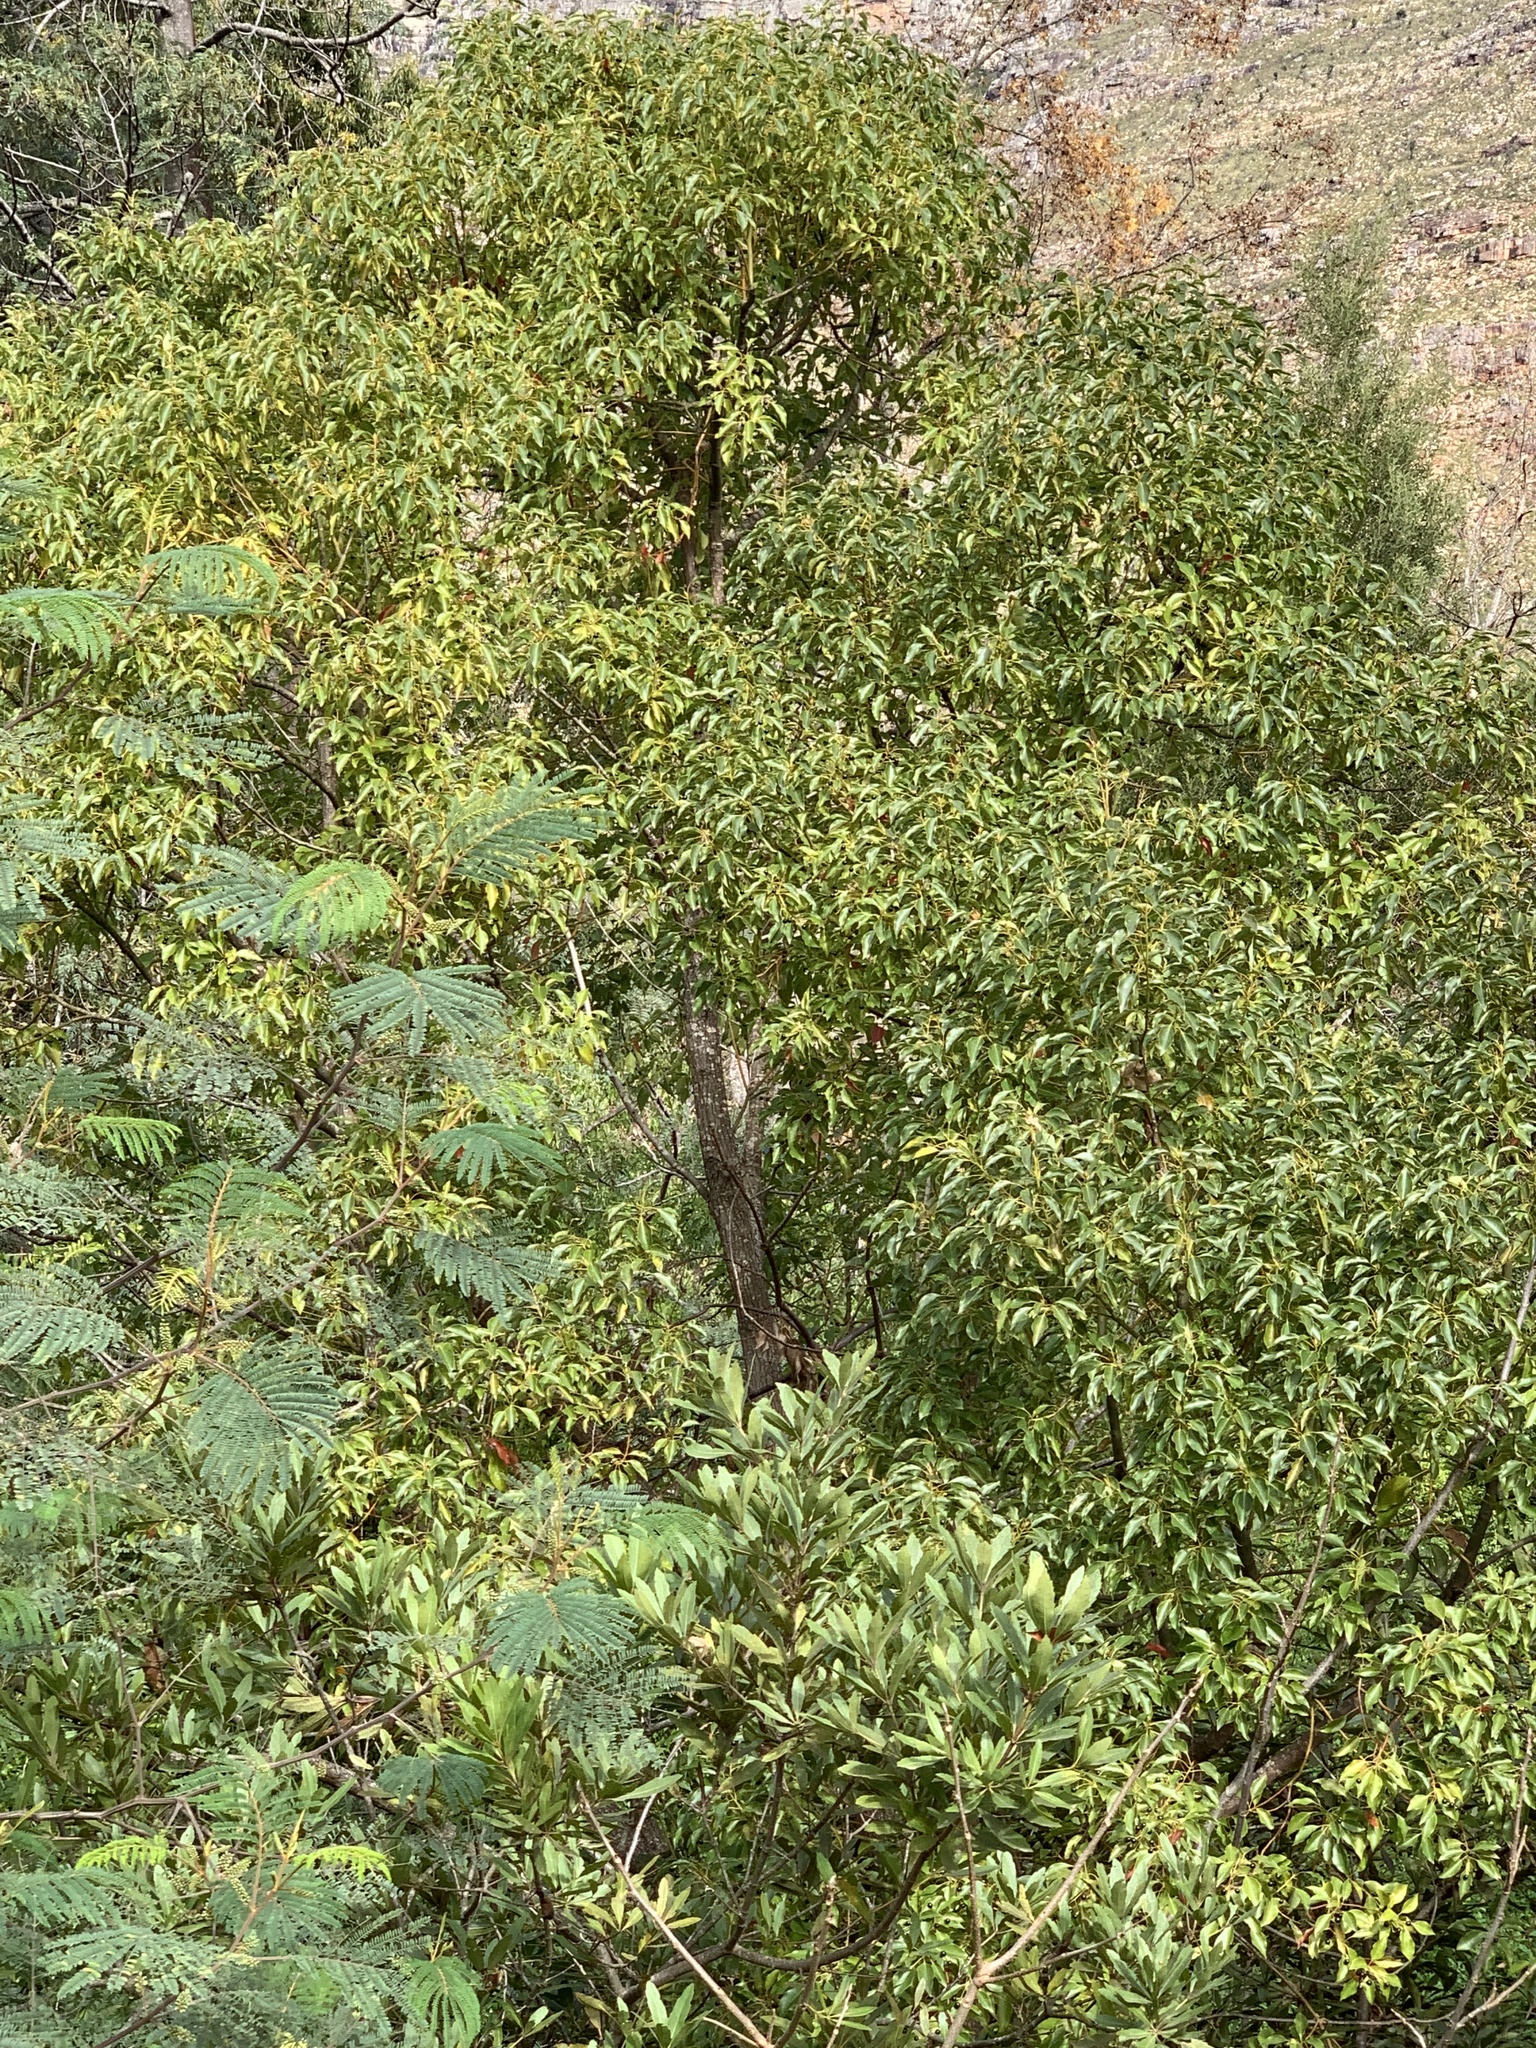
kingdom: Plantae
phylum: Tracheophyta
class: Magnoliopsida
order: Laurales
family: Lauraceae
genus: Cinnamomum
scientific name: Cinnamomum camphora
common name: Camphortree
